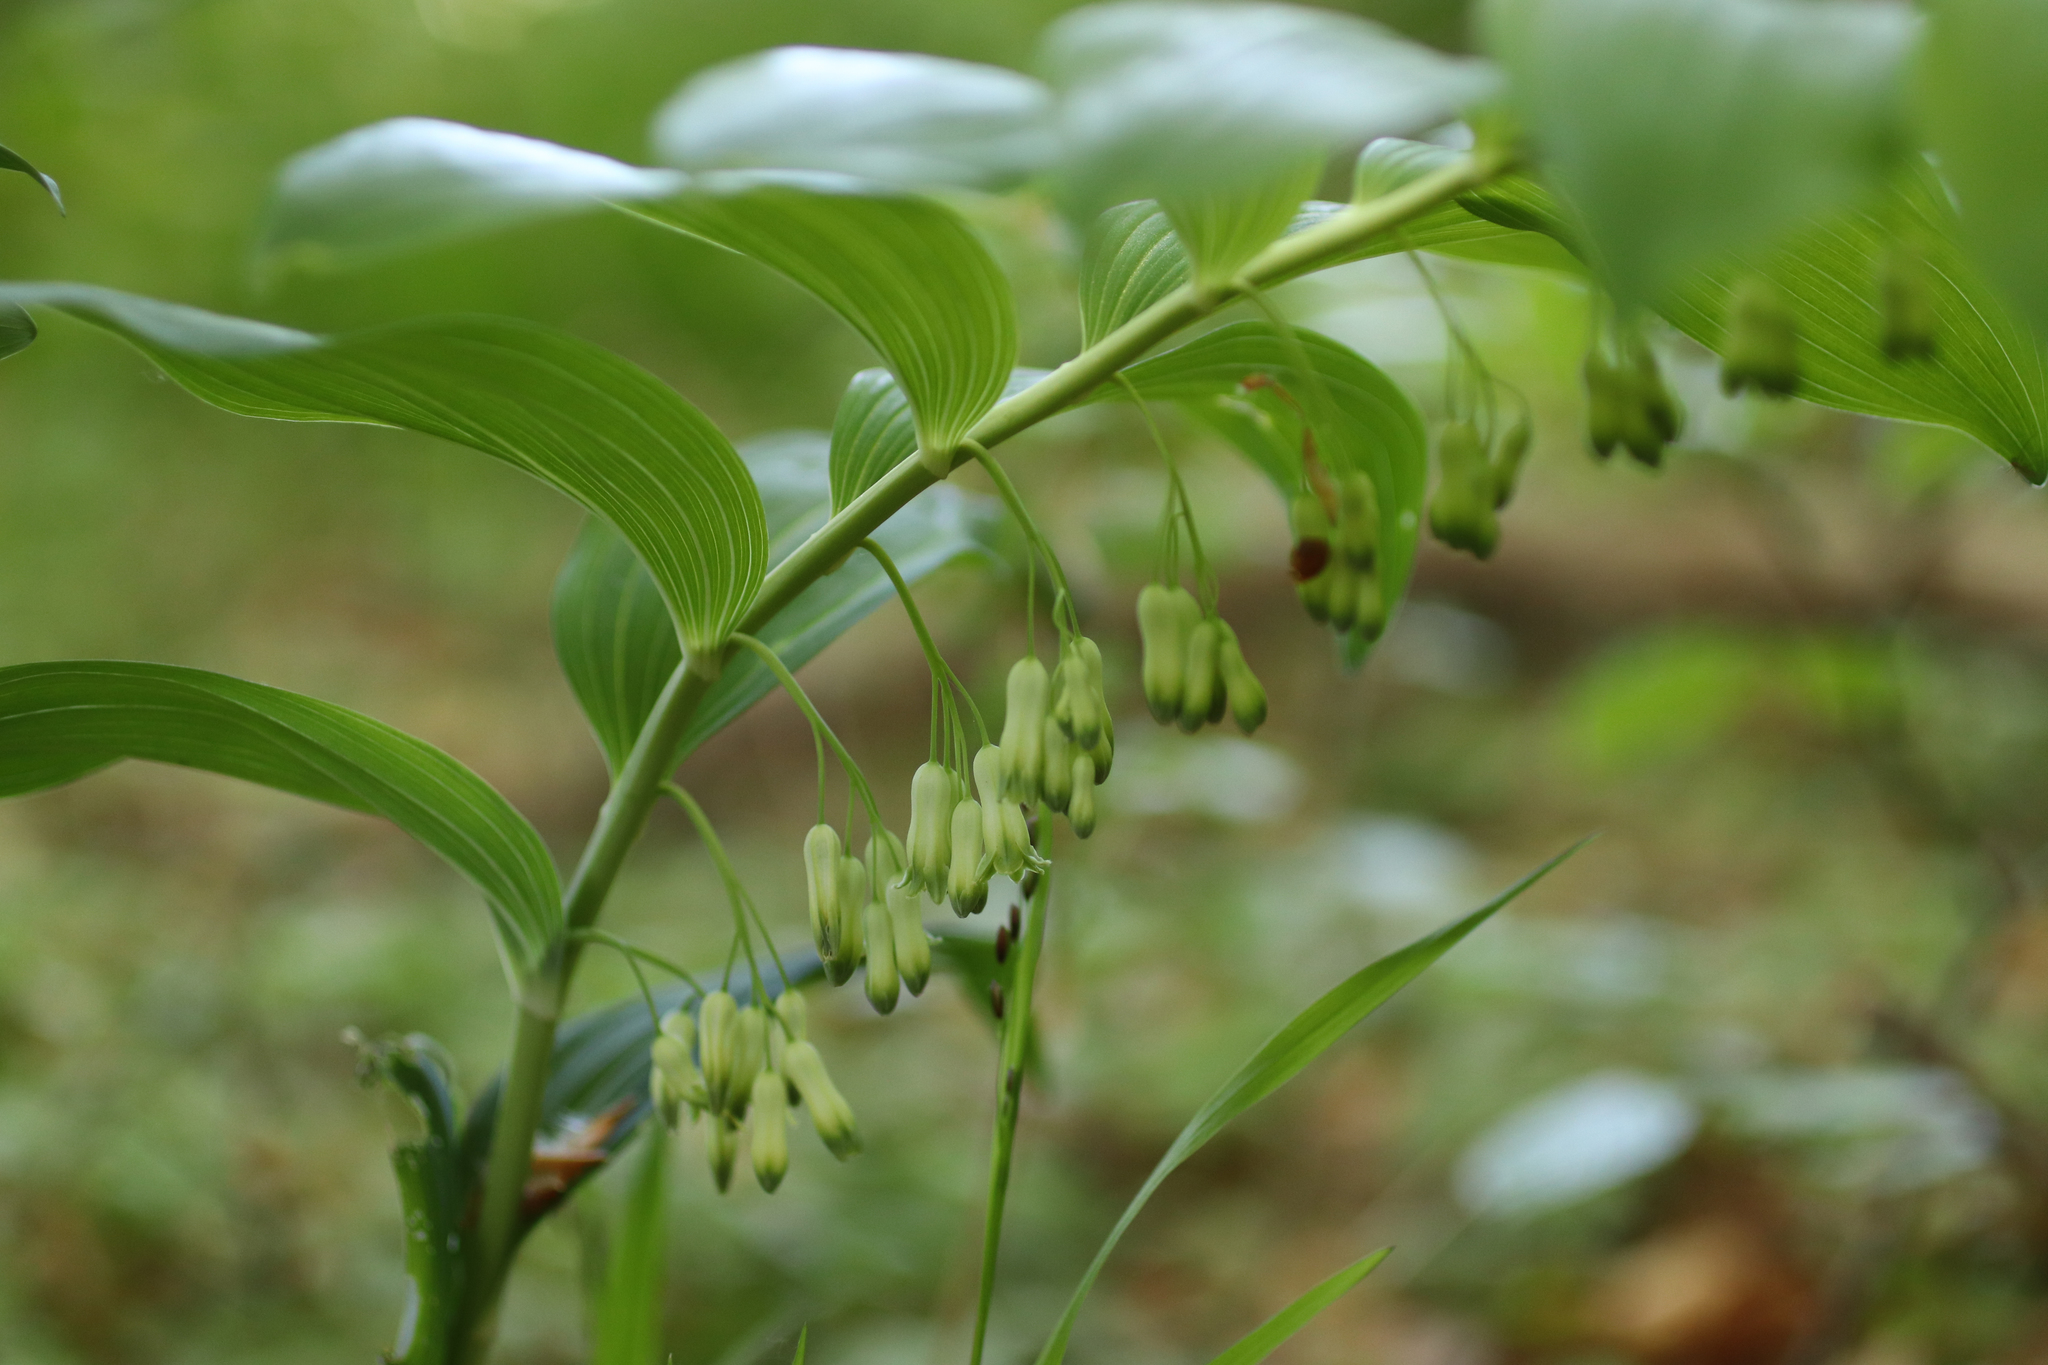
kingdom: Plantae
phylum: Tracheophyta
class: Liliopsida
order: Asparagales
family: Asparagaceae
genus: Polygonatum
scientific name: Polygonatum multiflorum
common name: Solomon's-seal
